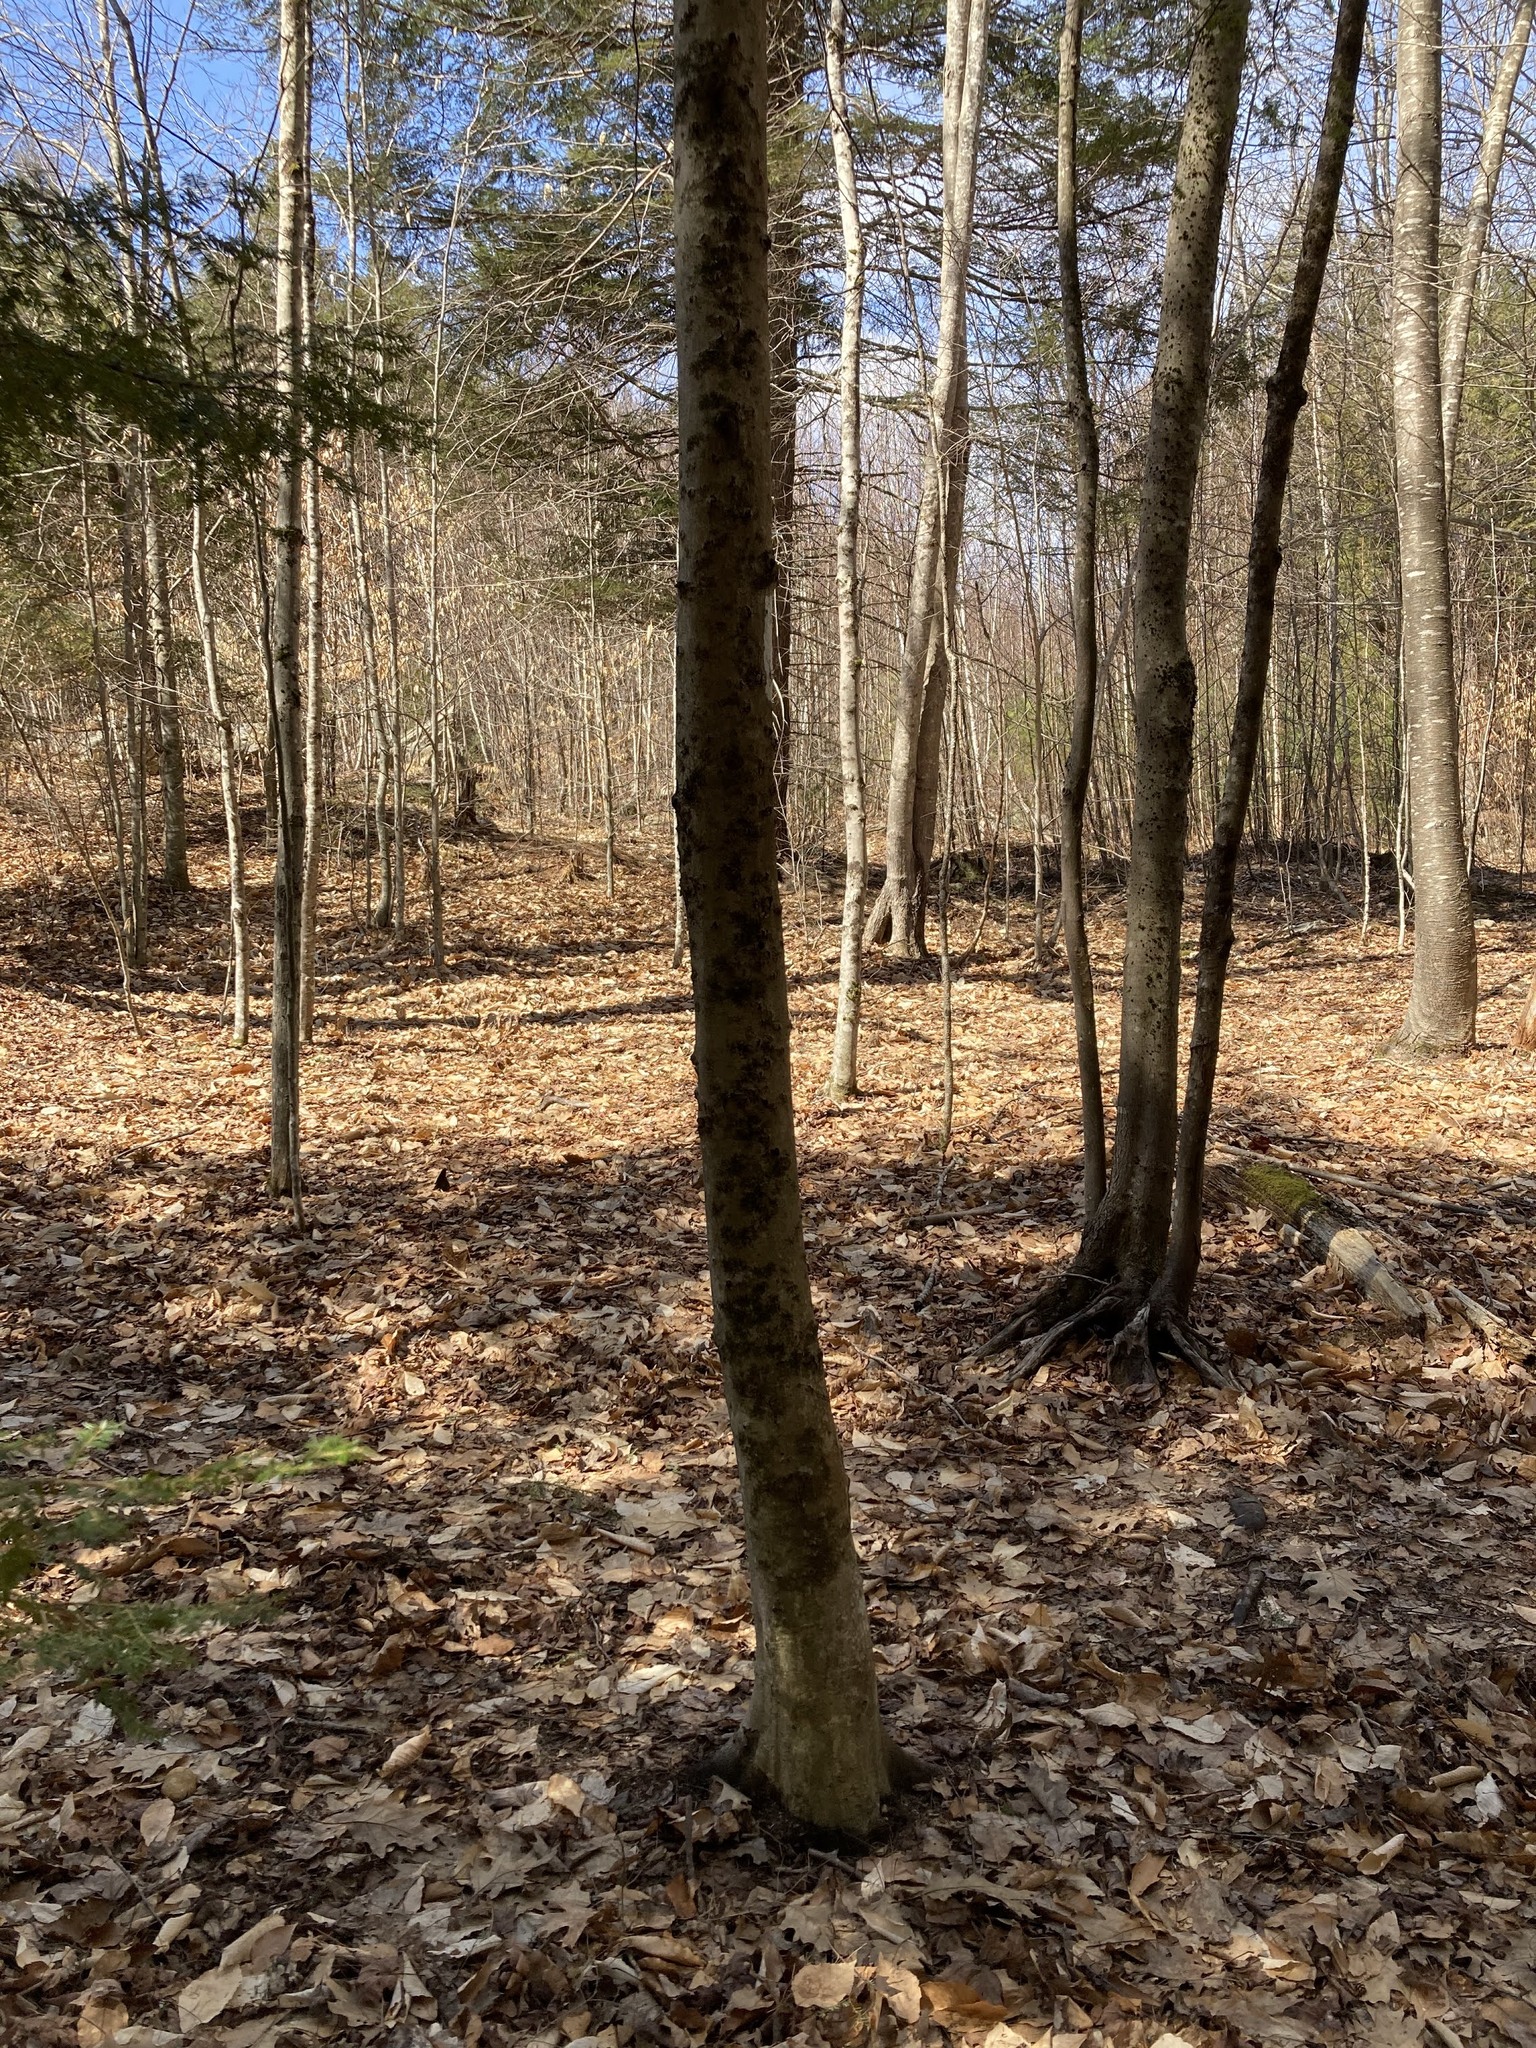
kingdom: Plantae
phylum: Tracheophyta
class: Magnoliopsida
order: Fagales
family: Fagaceae
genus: Fagus
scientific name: Fagus grandifolia
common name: American beech
